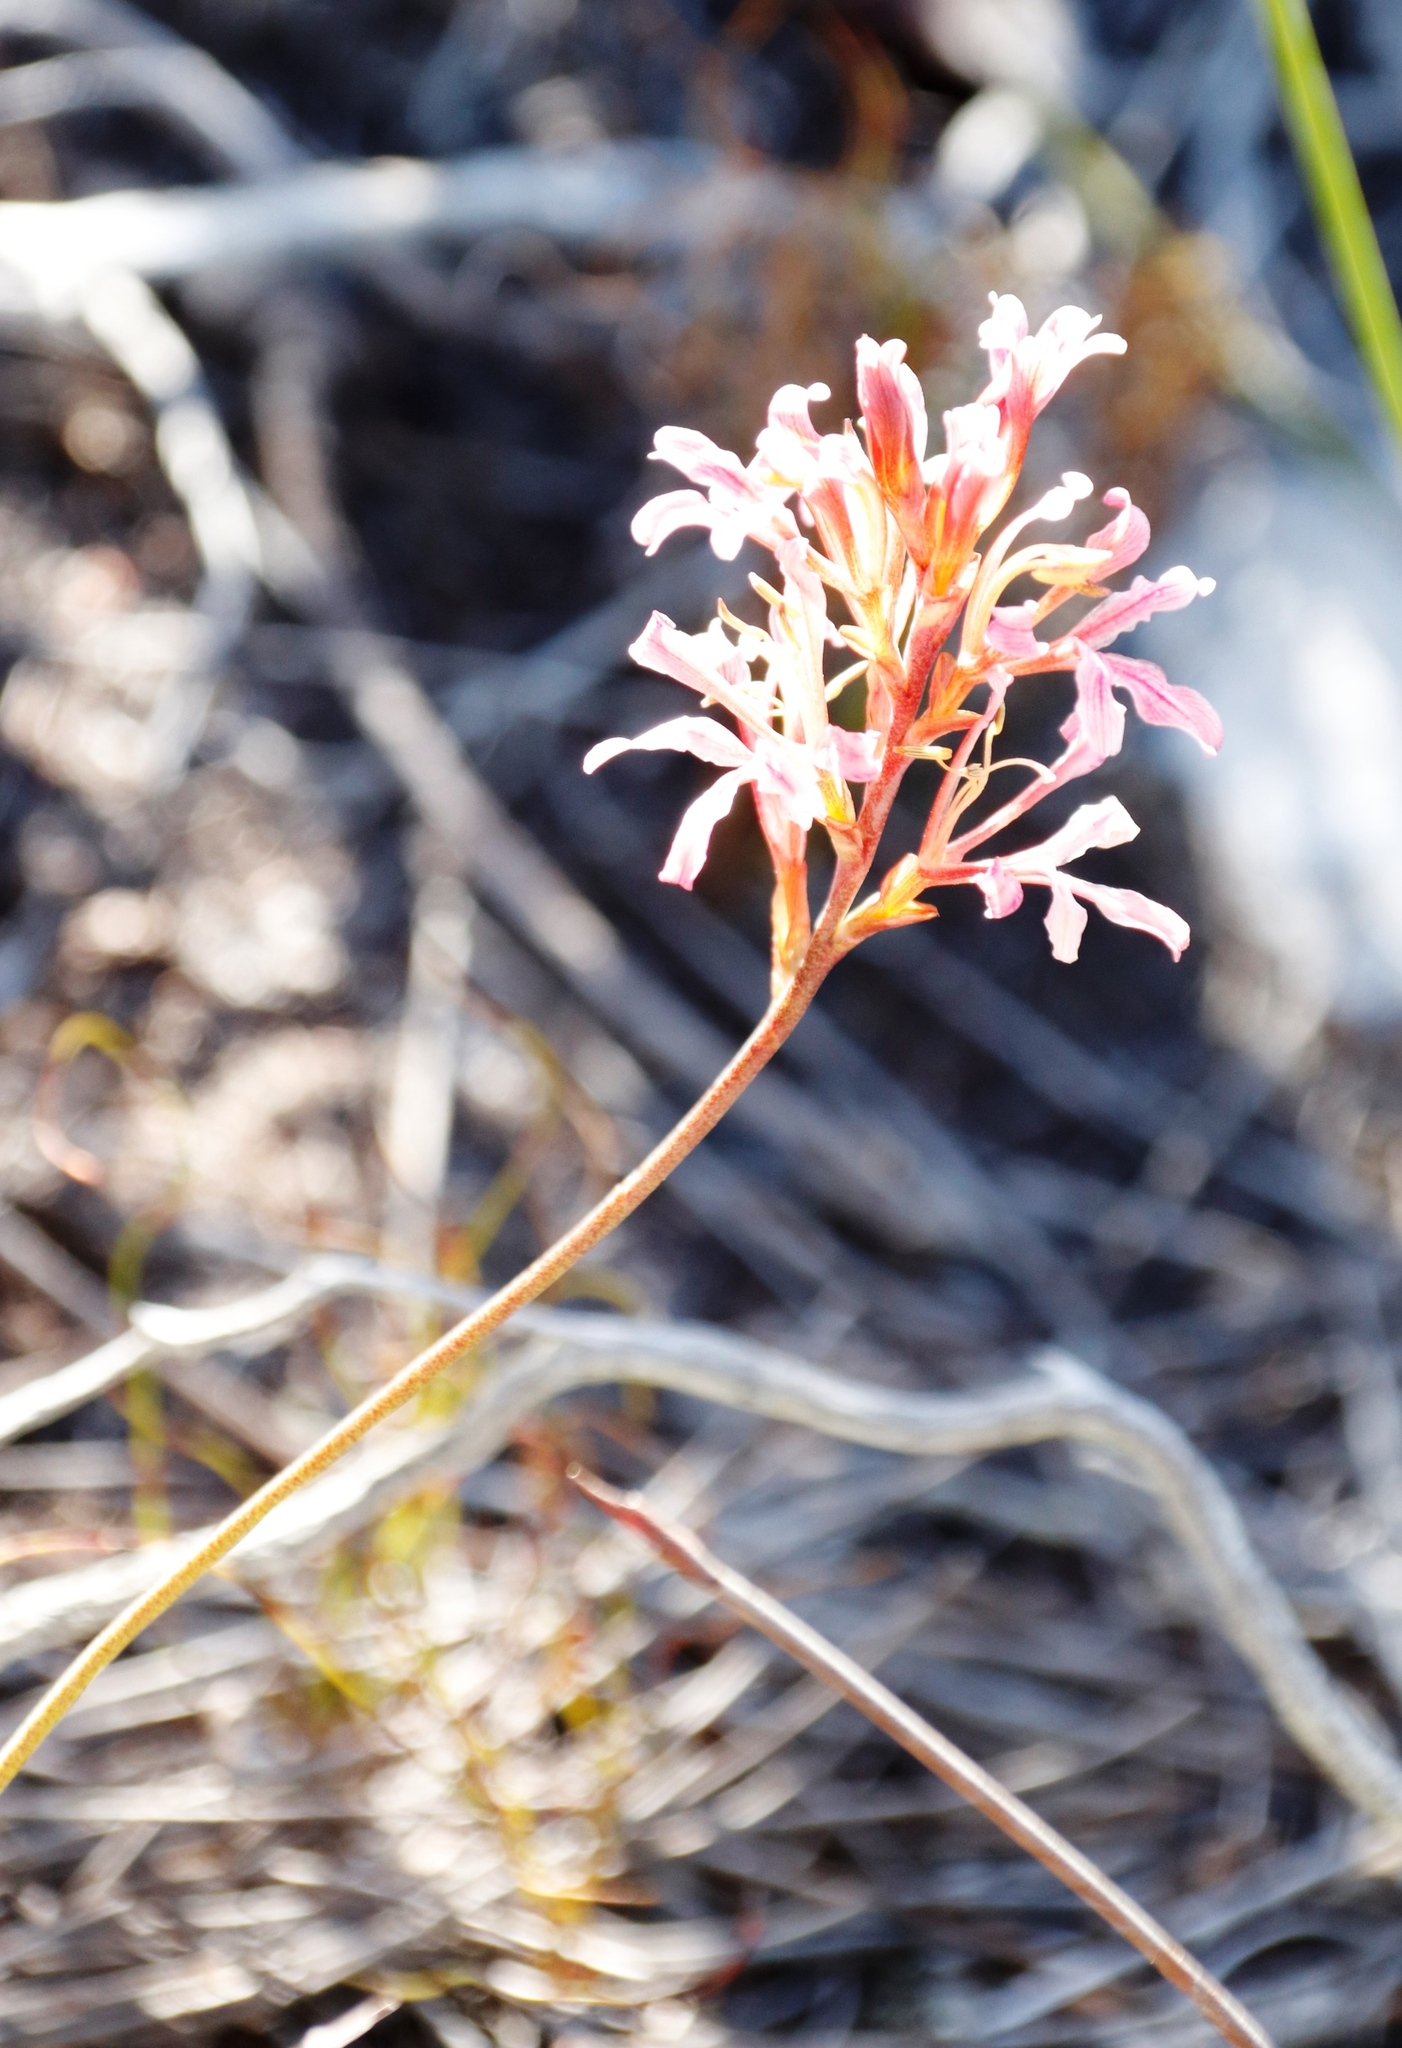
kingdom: Plantae
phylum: Tracheophyta
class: Liliopsida
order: Asparagales
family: Iridaceae
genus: Tritoniopsis
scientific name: Tritoniopsis dodii
